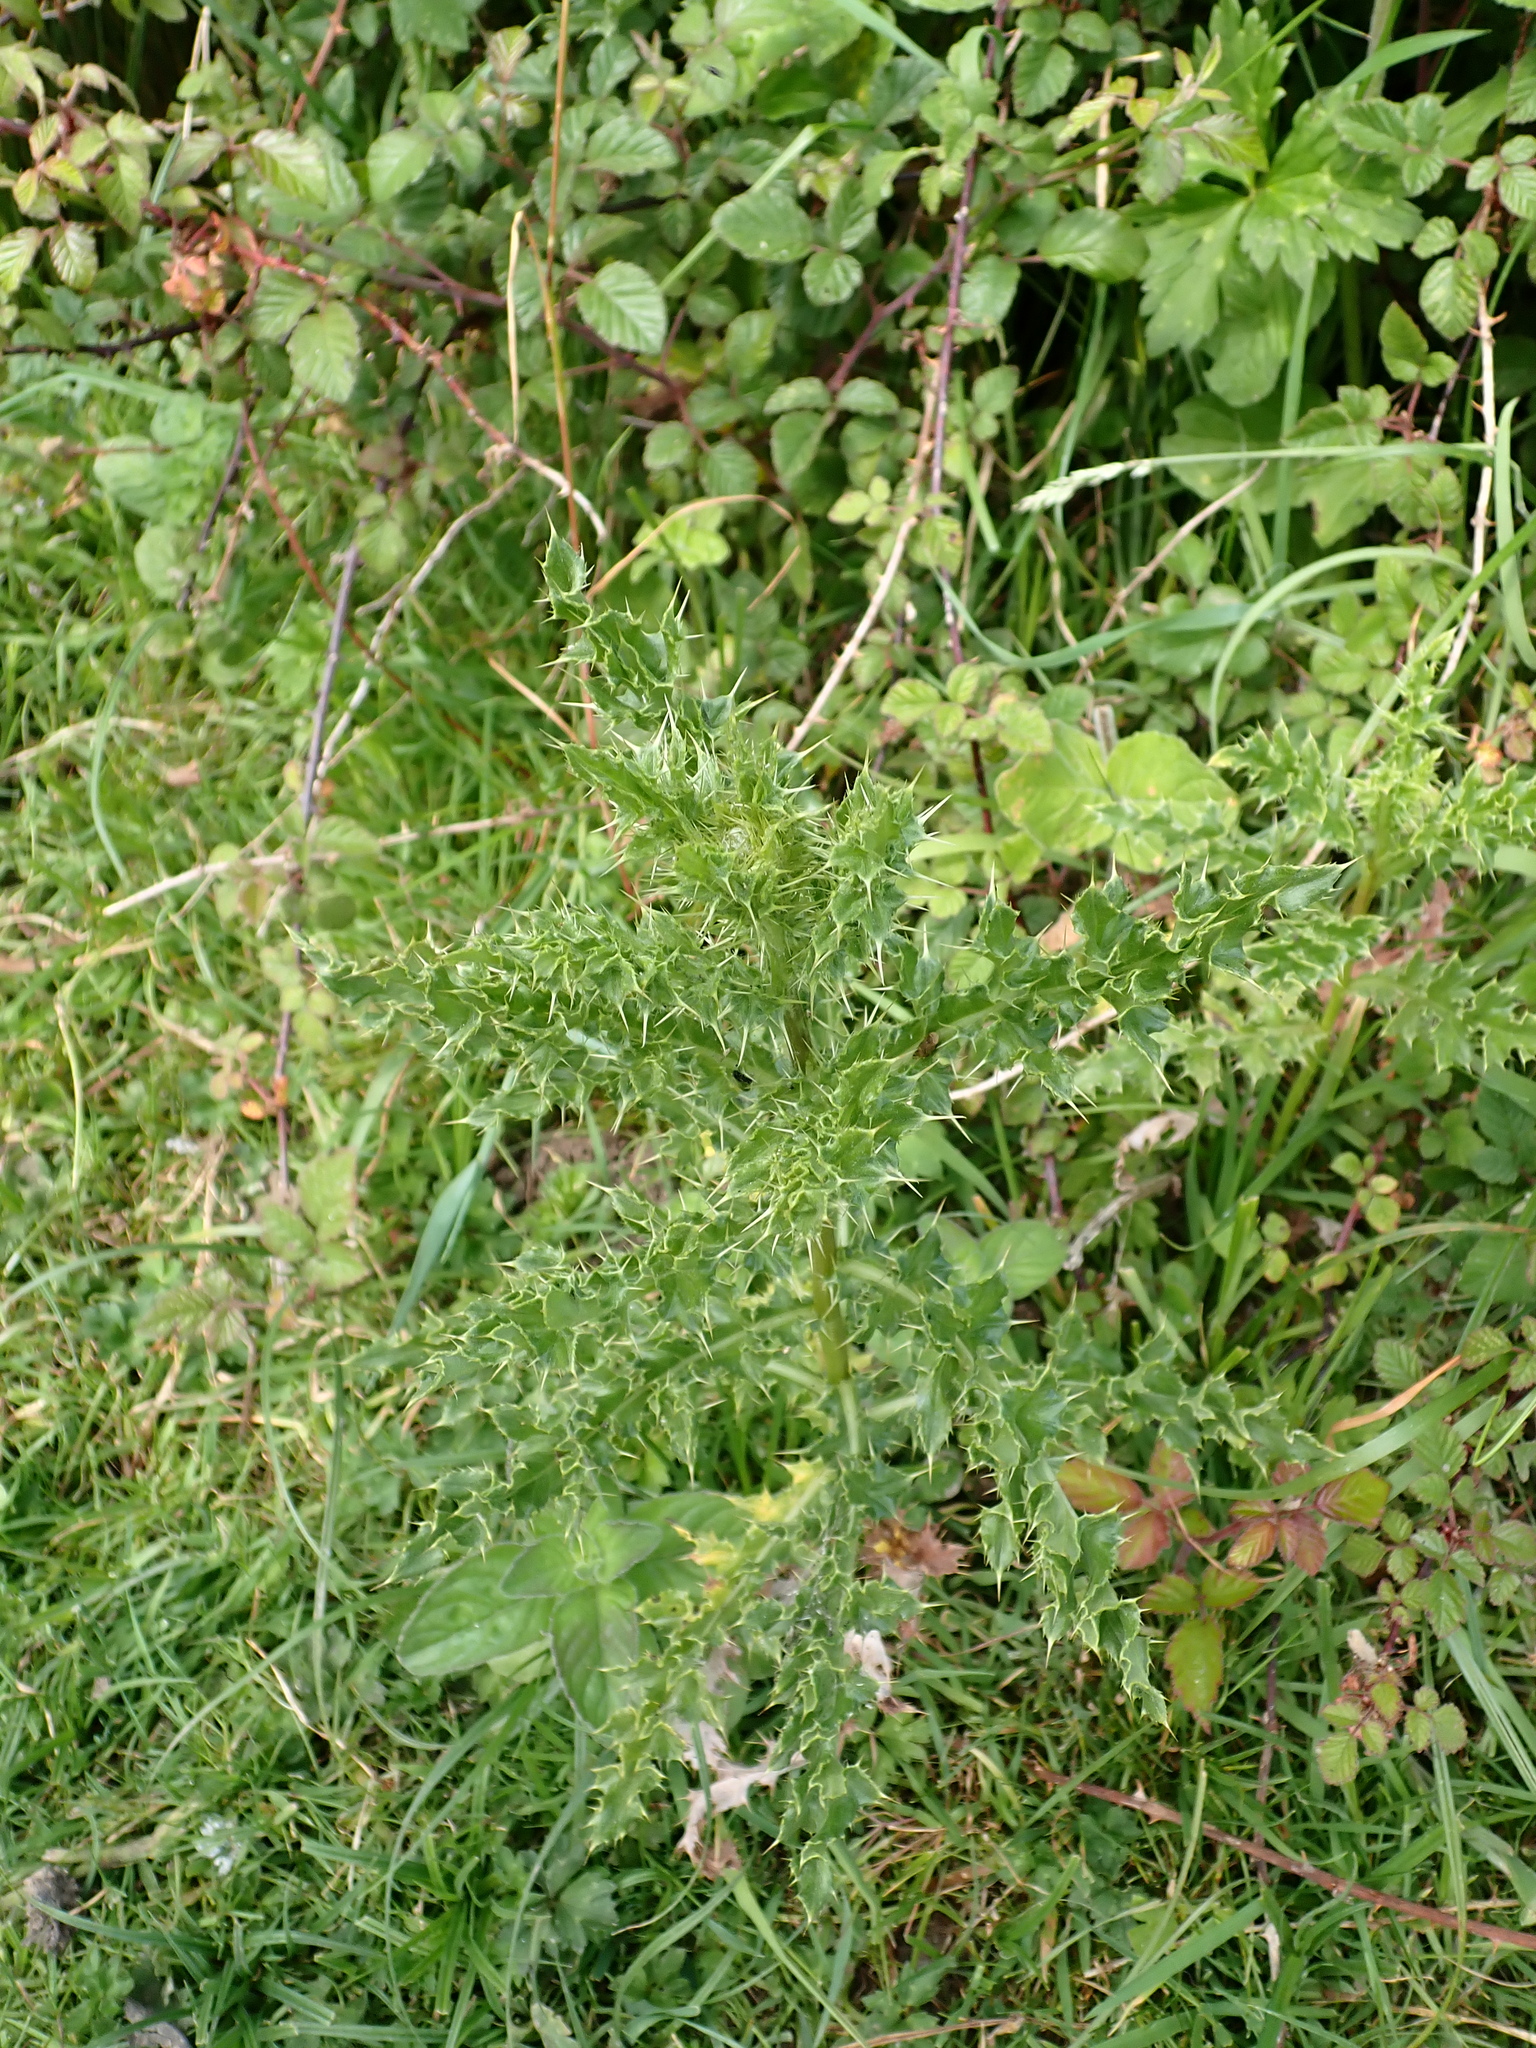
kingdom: Plantae
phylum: Tracheophyta
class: Magnoliopsida
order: Asterales
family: Asteraceae
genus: Cirsium
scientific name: Cirsium arvense
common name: Creeping thistle
